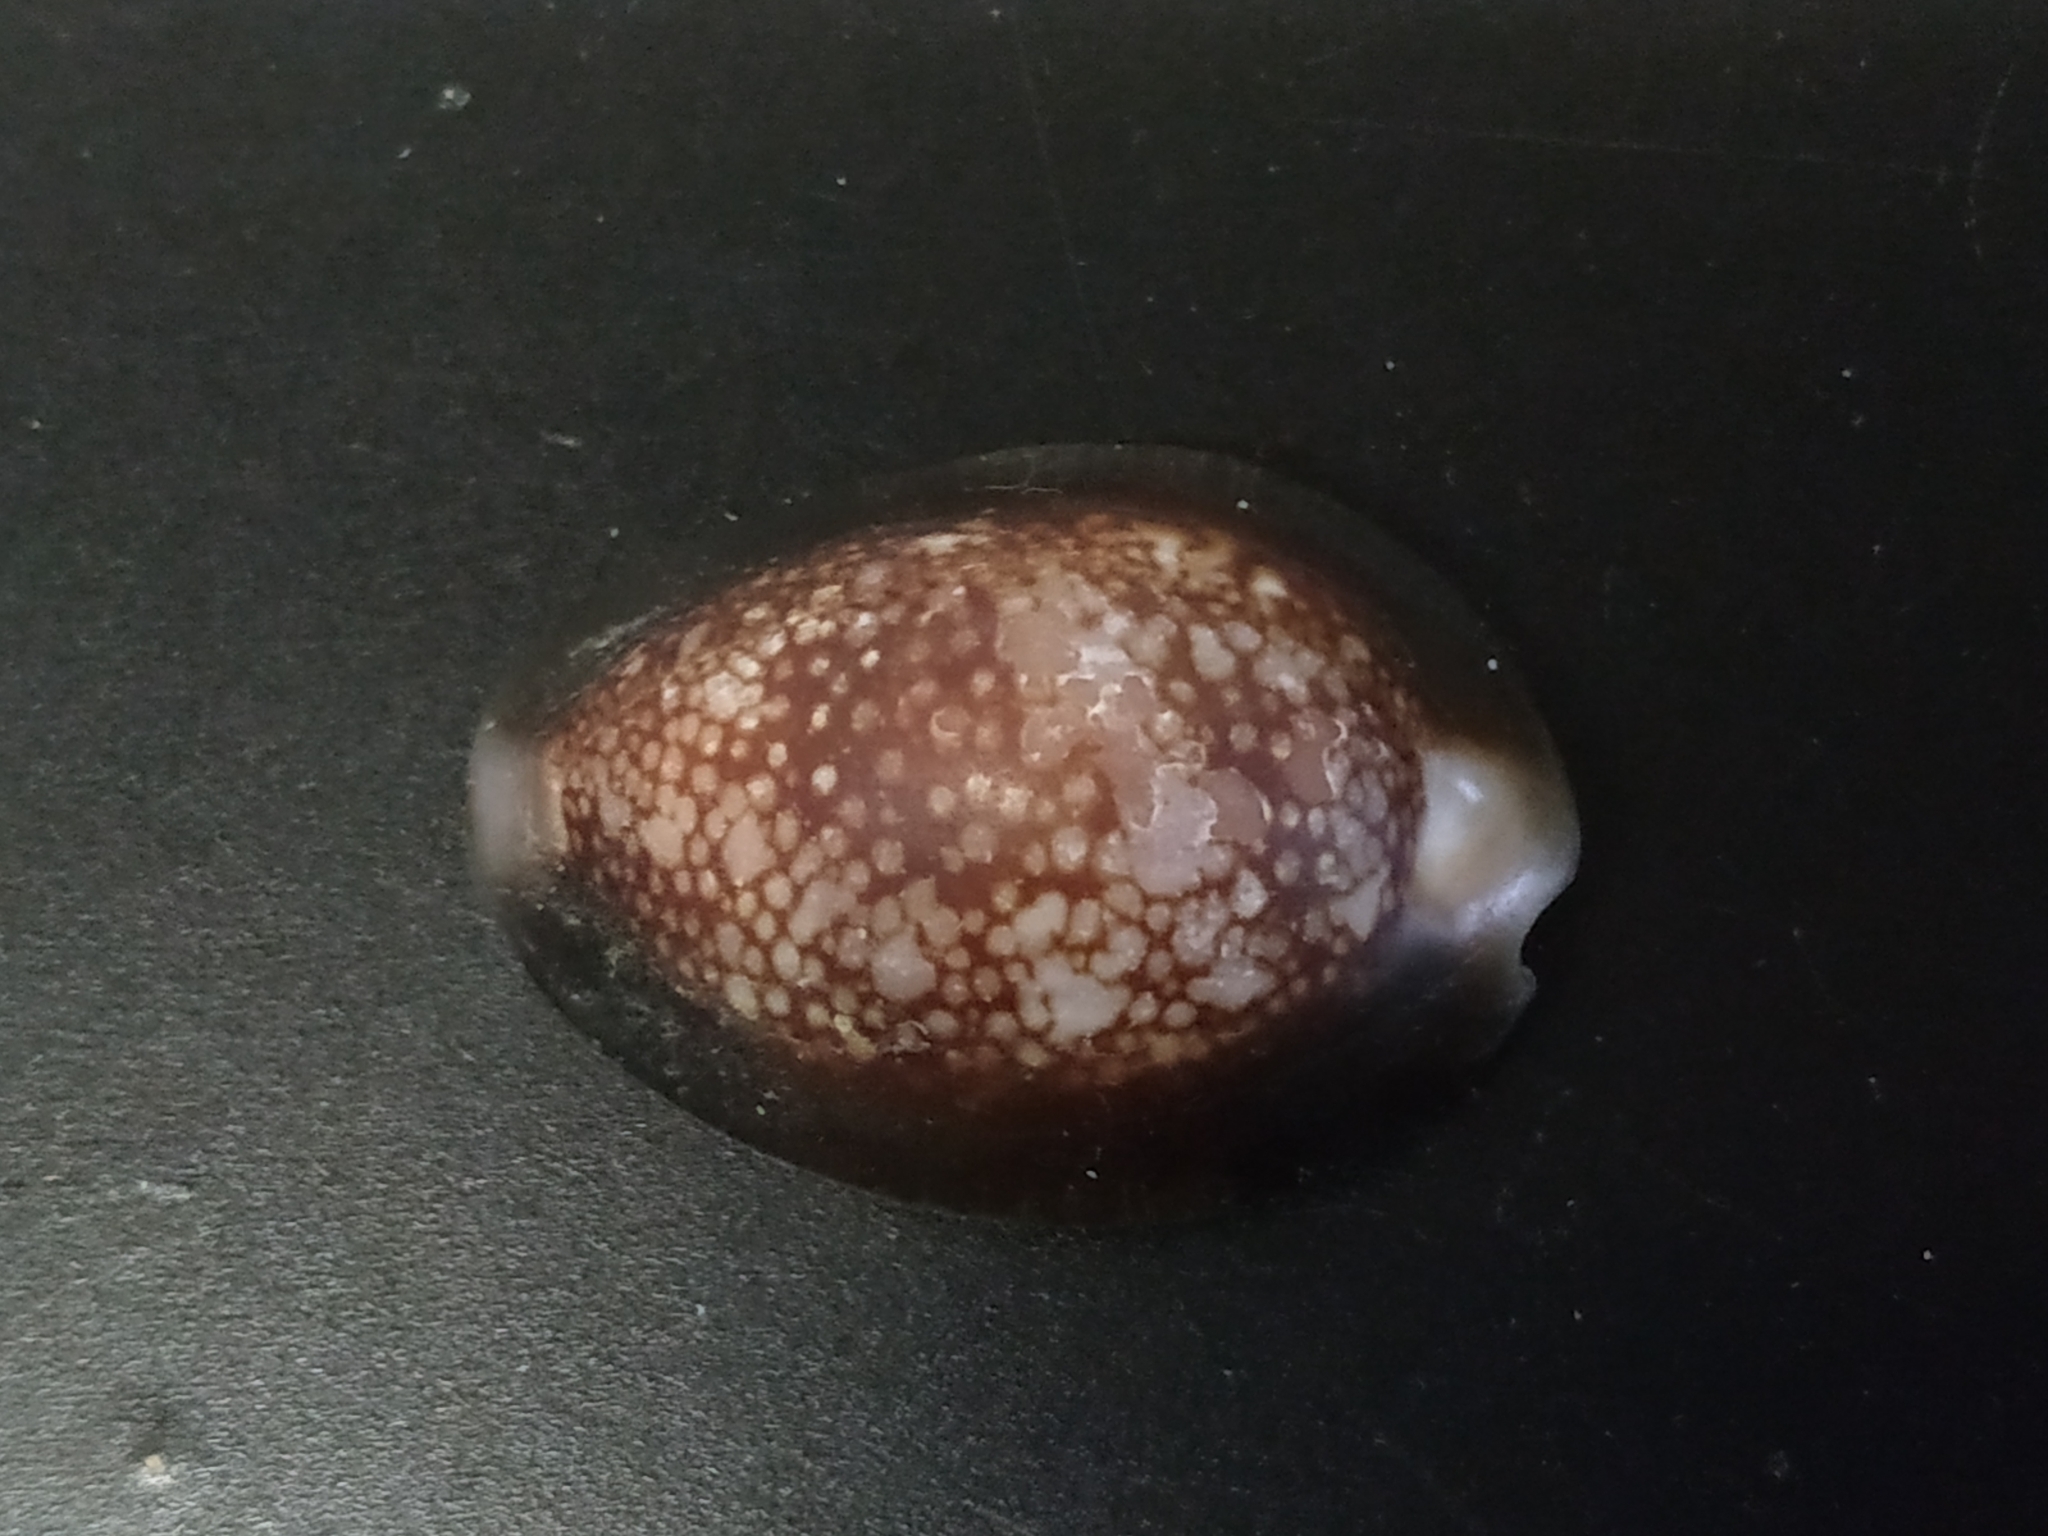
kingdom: Animalia
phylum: Mollusca
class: Gastropoda
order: Littorinimorpha
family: Cypraeidae
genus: Monetaria
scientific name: Monetaria caputserpentis
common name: Serpent's head cowrie
